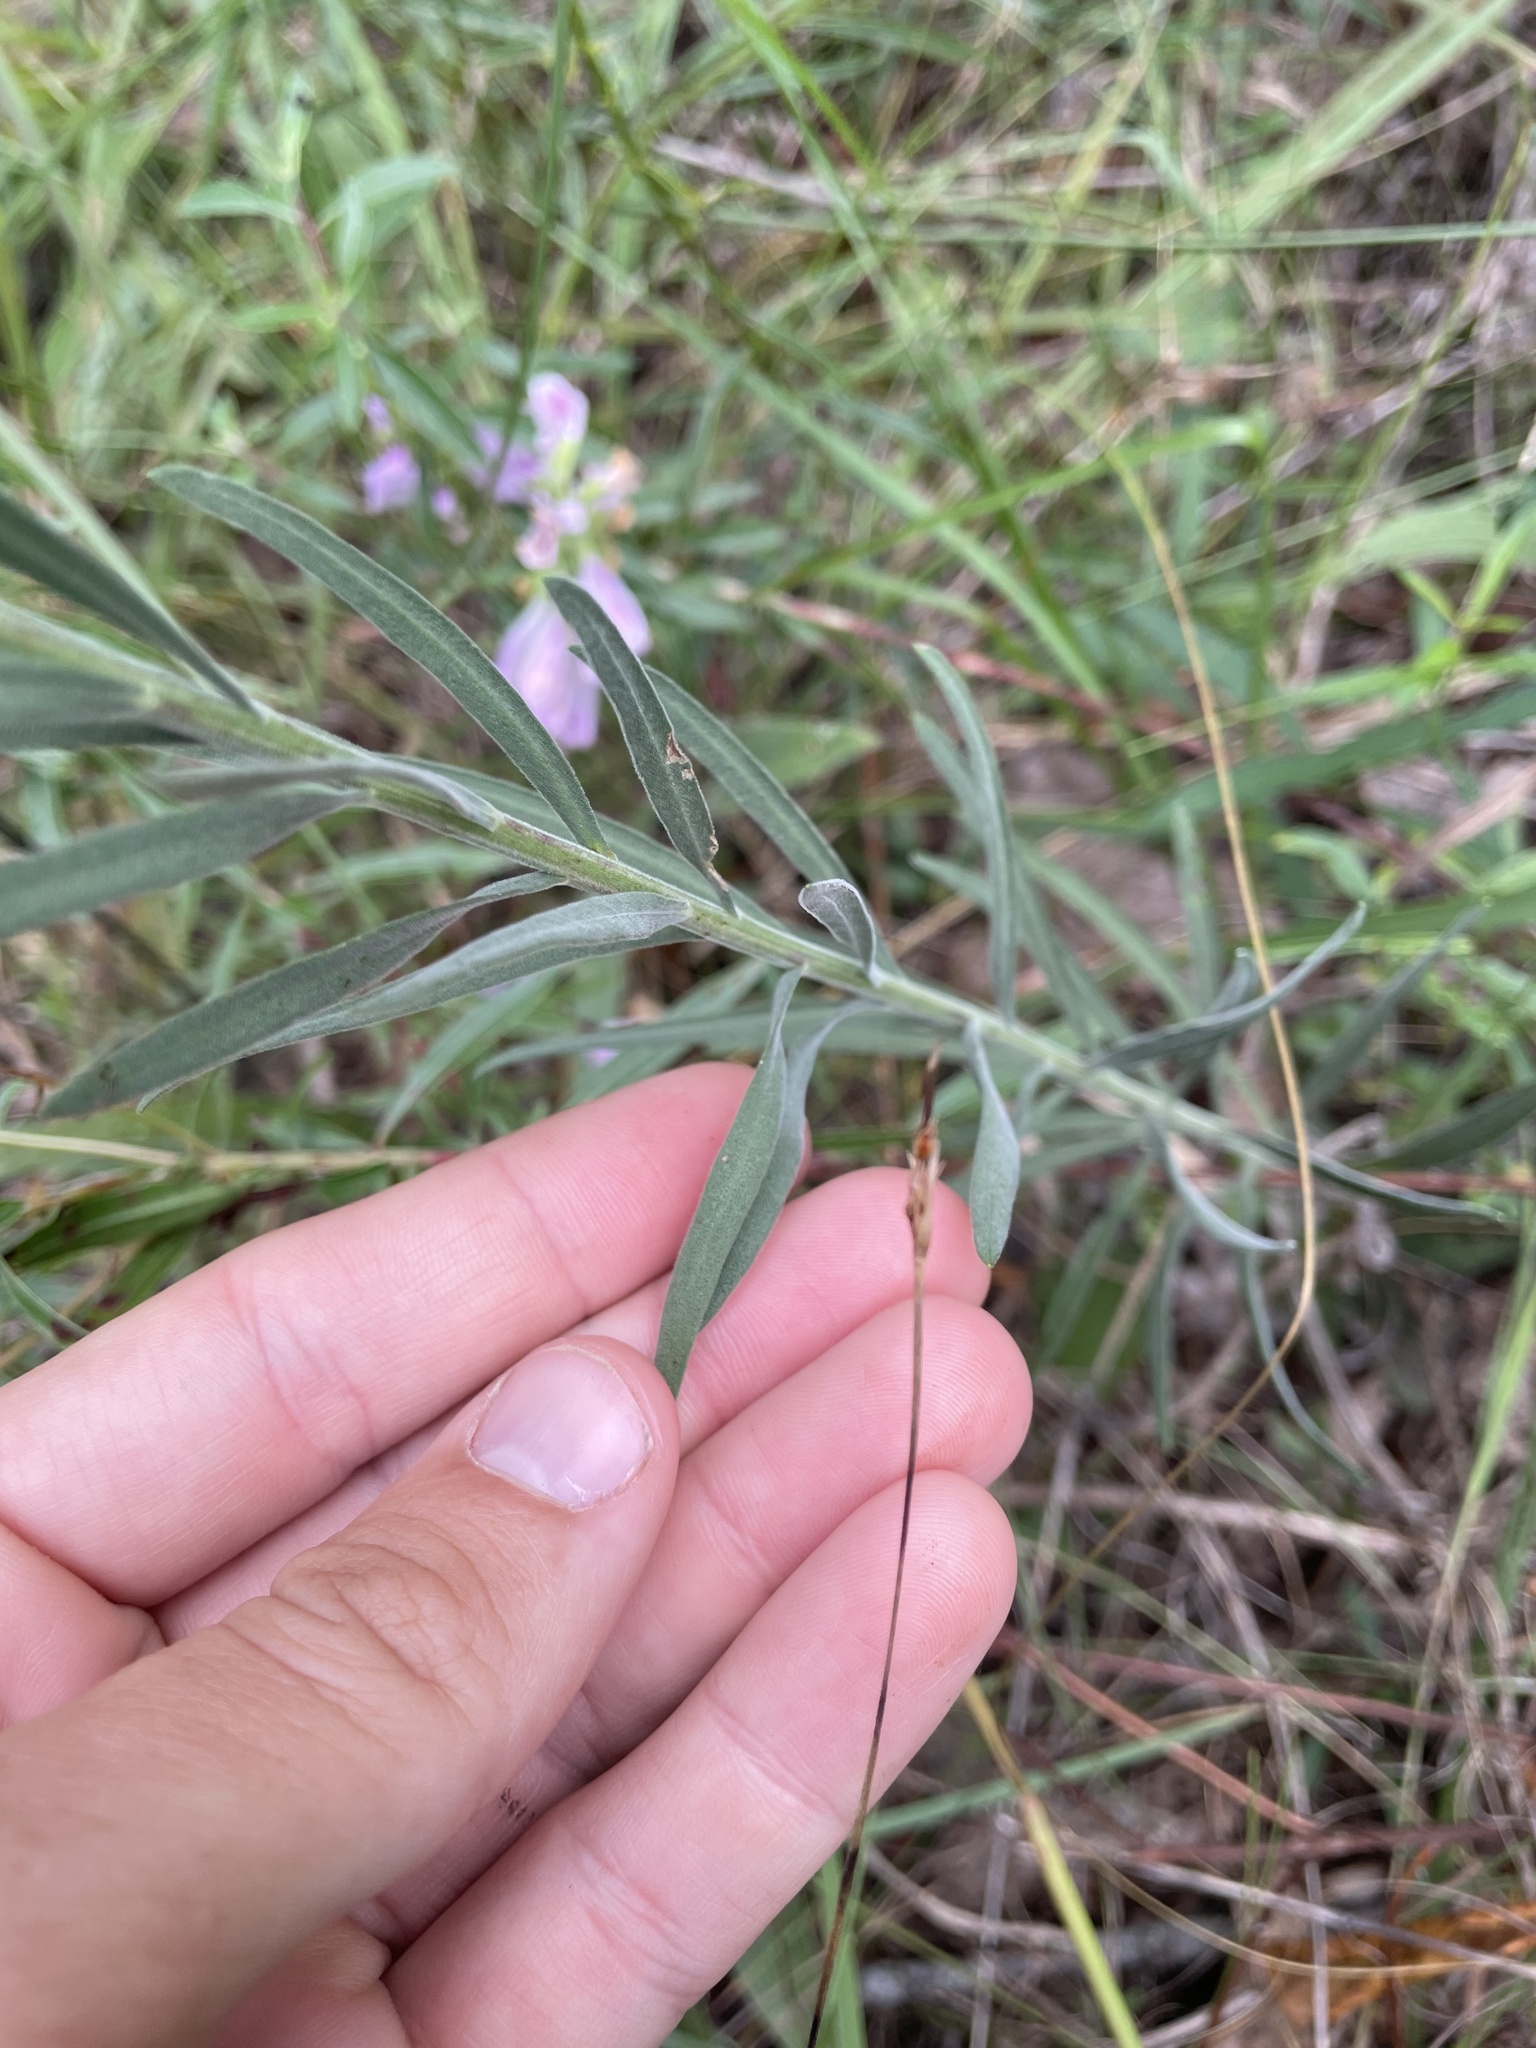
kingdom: Plantae
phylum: Tracheophyta
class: Magnoliopsida
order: Asterales
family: Asteraceae
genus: Liatris
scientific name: Liatris squarrulosa
